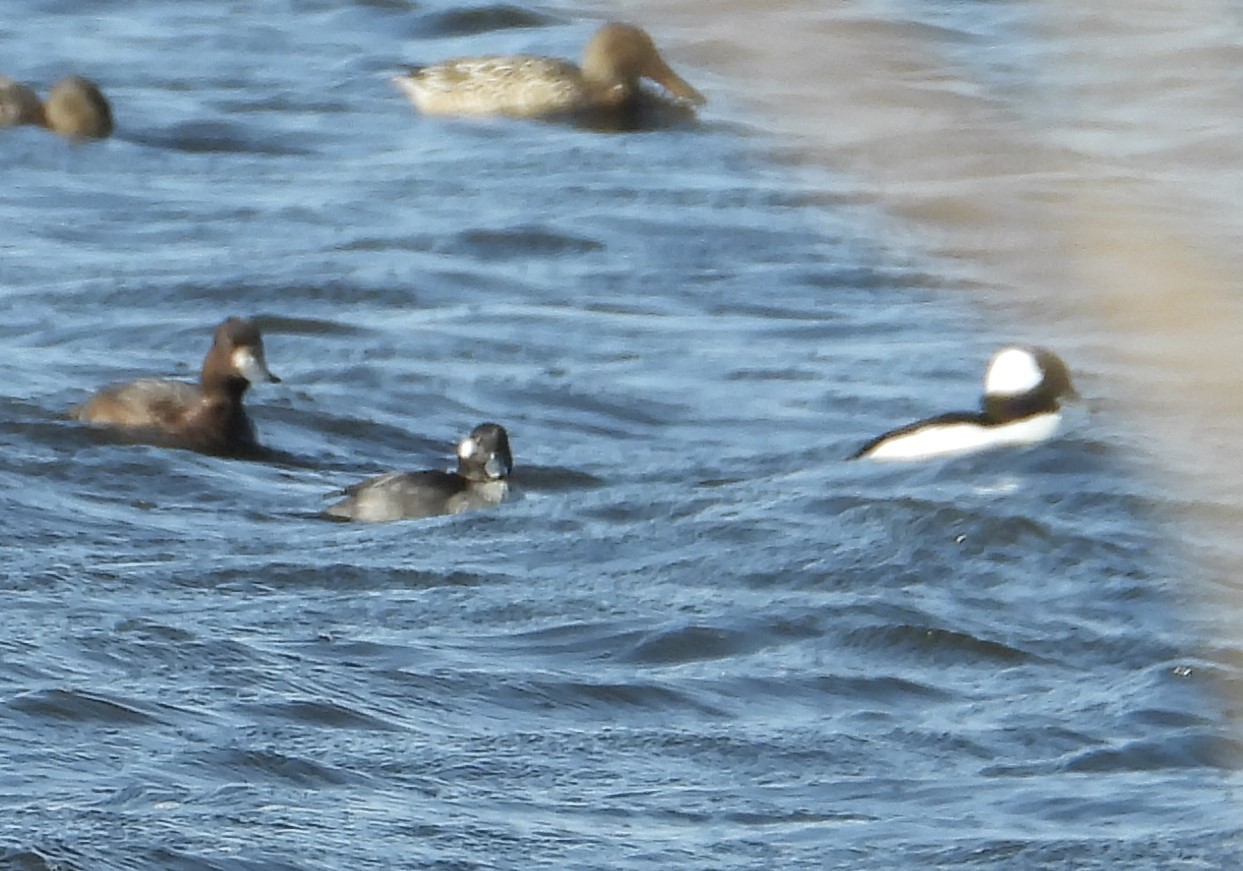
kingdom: Animalia
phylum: Chordata
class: Aves
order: Anseriformes
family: Anatidae
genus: Bucephala
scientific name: Bucephala albeola
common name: Bufflehead
